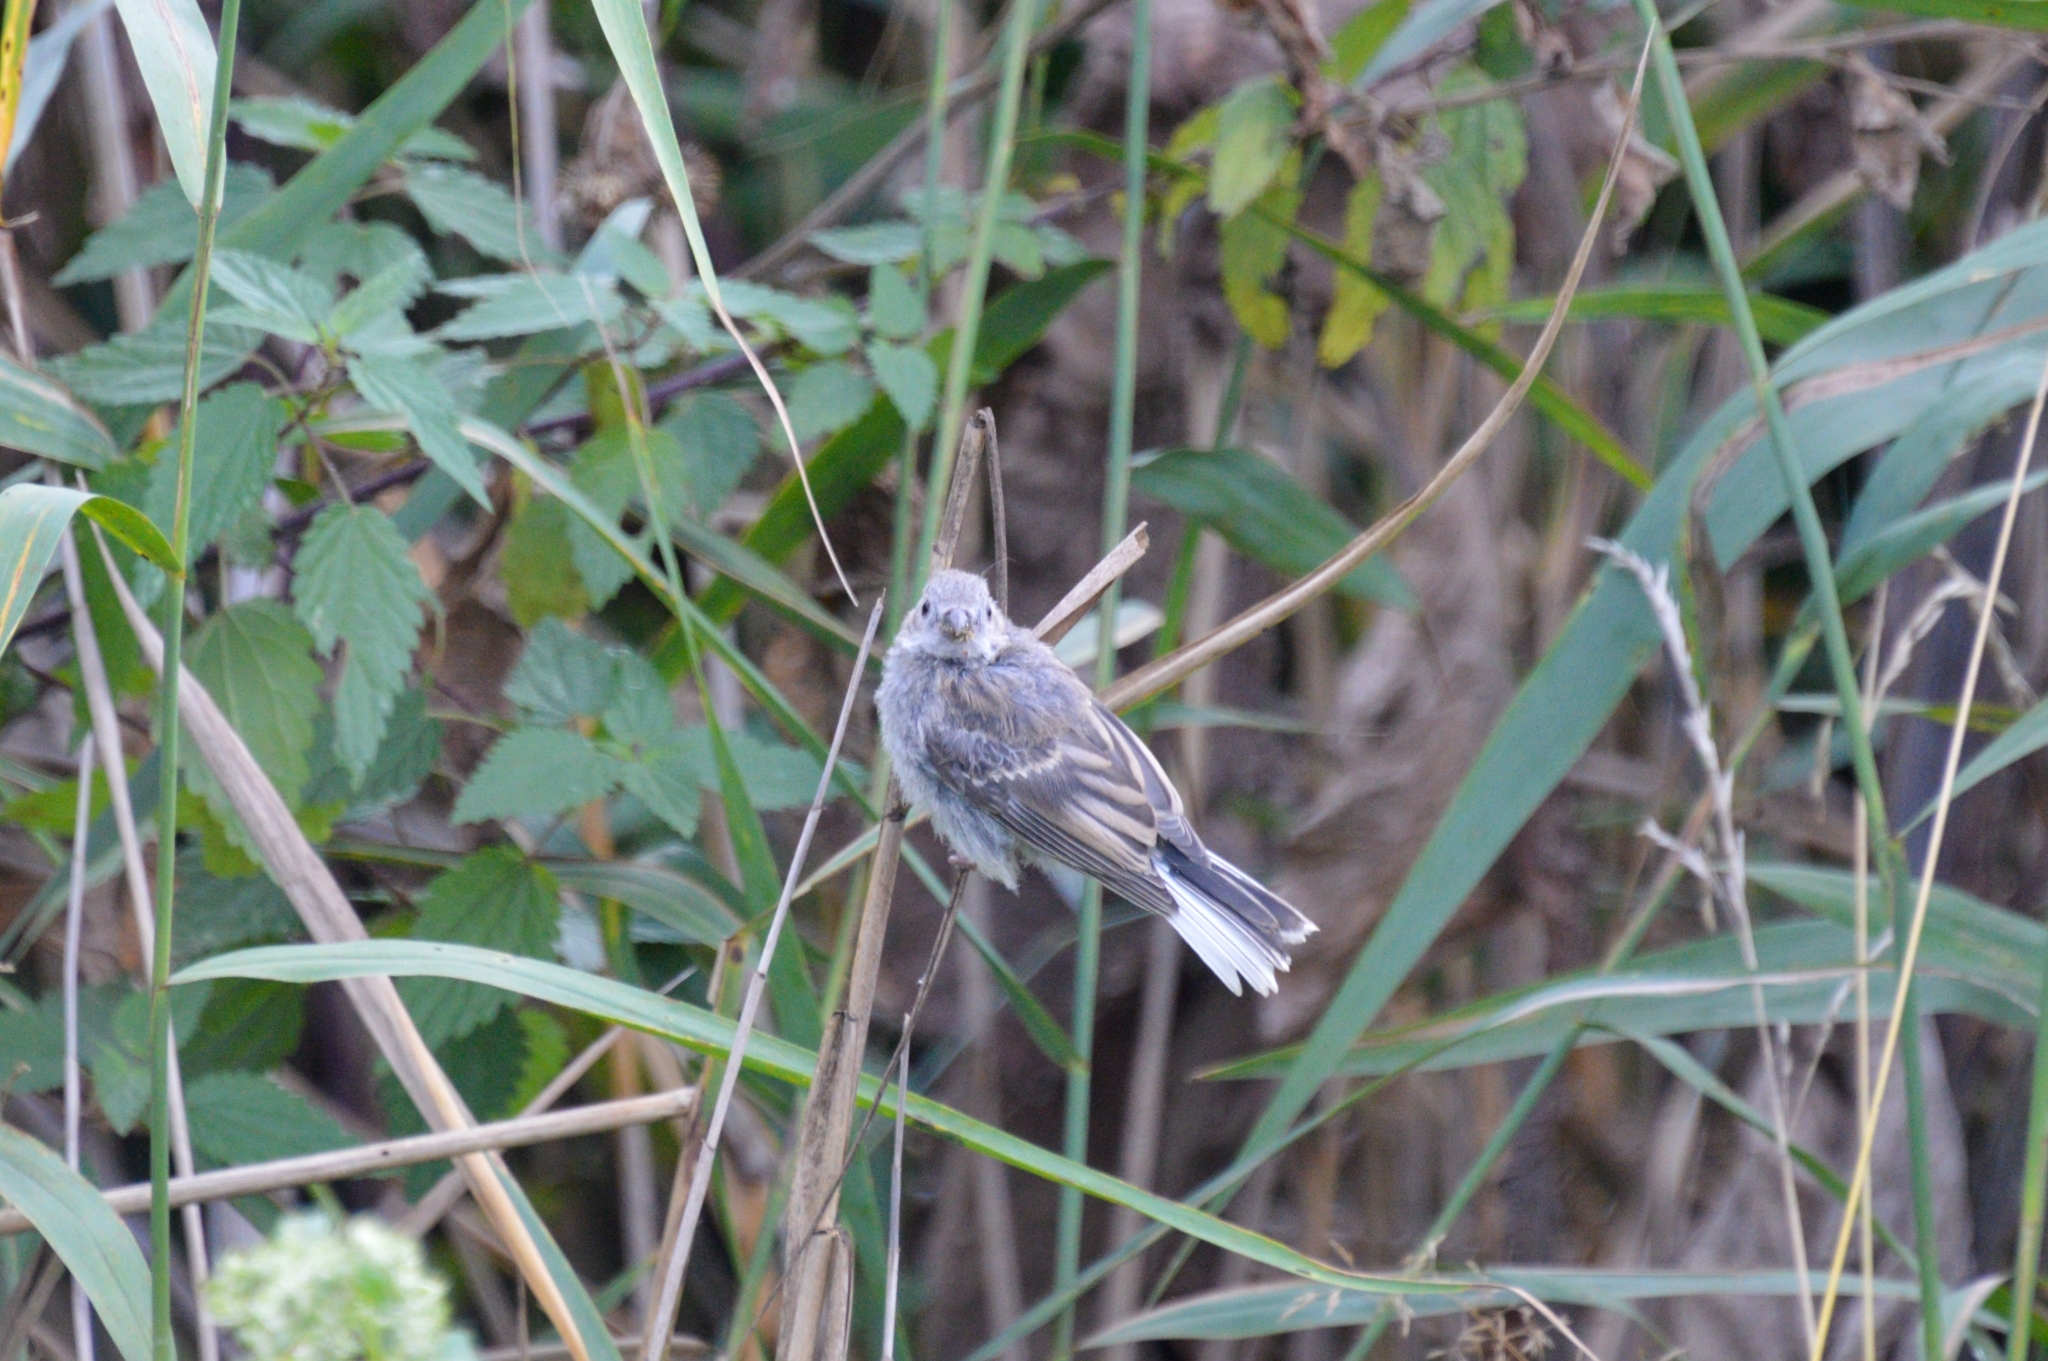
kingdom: Animalia
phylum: Chordata
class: Aves
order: Passeriformes
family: Fringillidae
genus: Carpodacus
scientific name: Carpodacus sibiricus
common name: Long-tailed rosefinch
